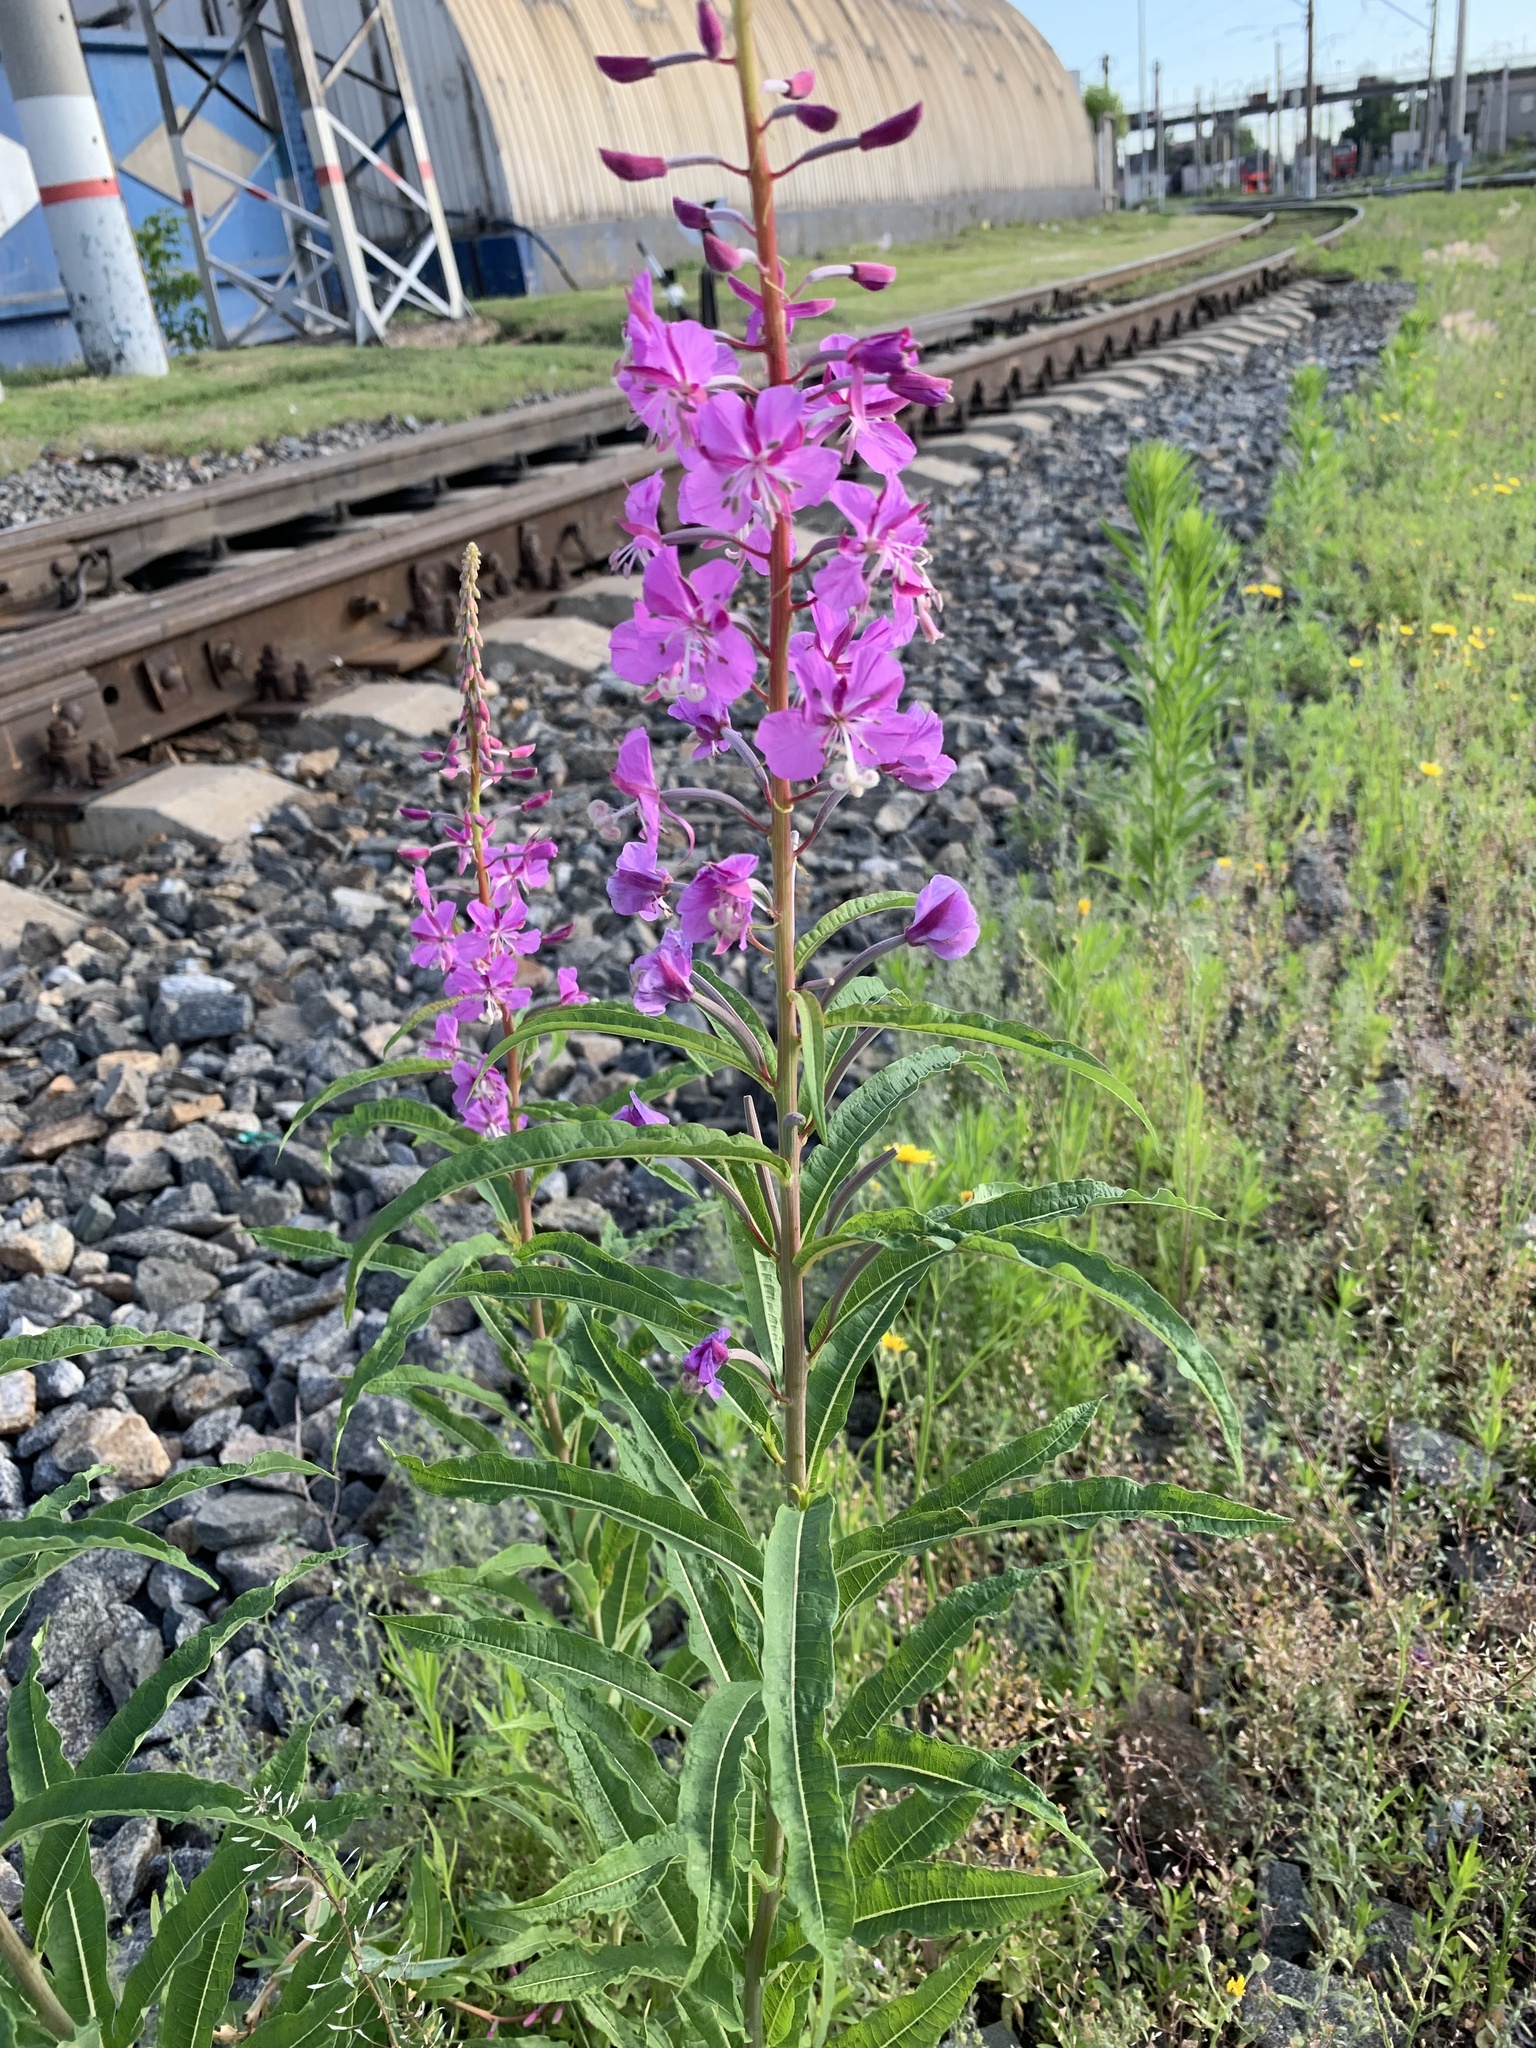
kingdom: Plantae
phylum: Tracheophyta
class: Magnoliopsida
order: Myrtales
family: Onagraceae
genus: Chamaenerion
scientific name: Chamaenerion angustifolium
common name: Fireweed
